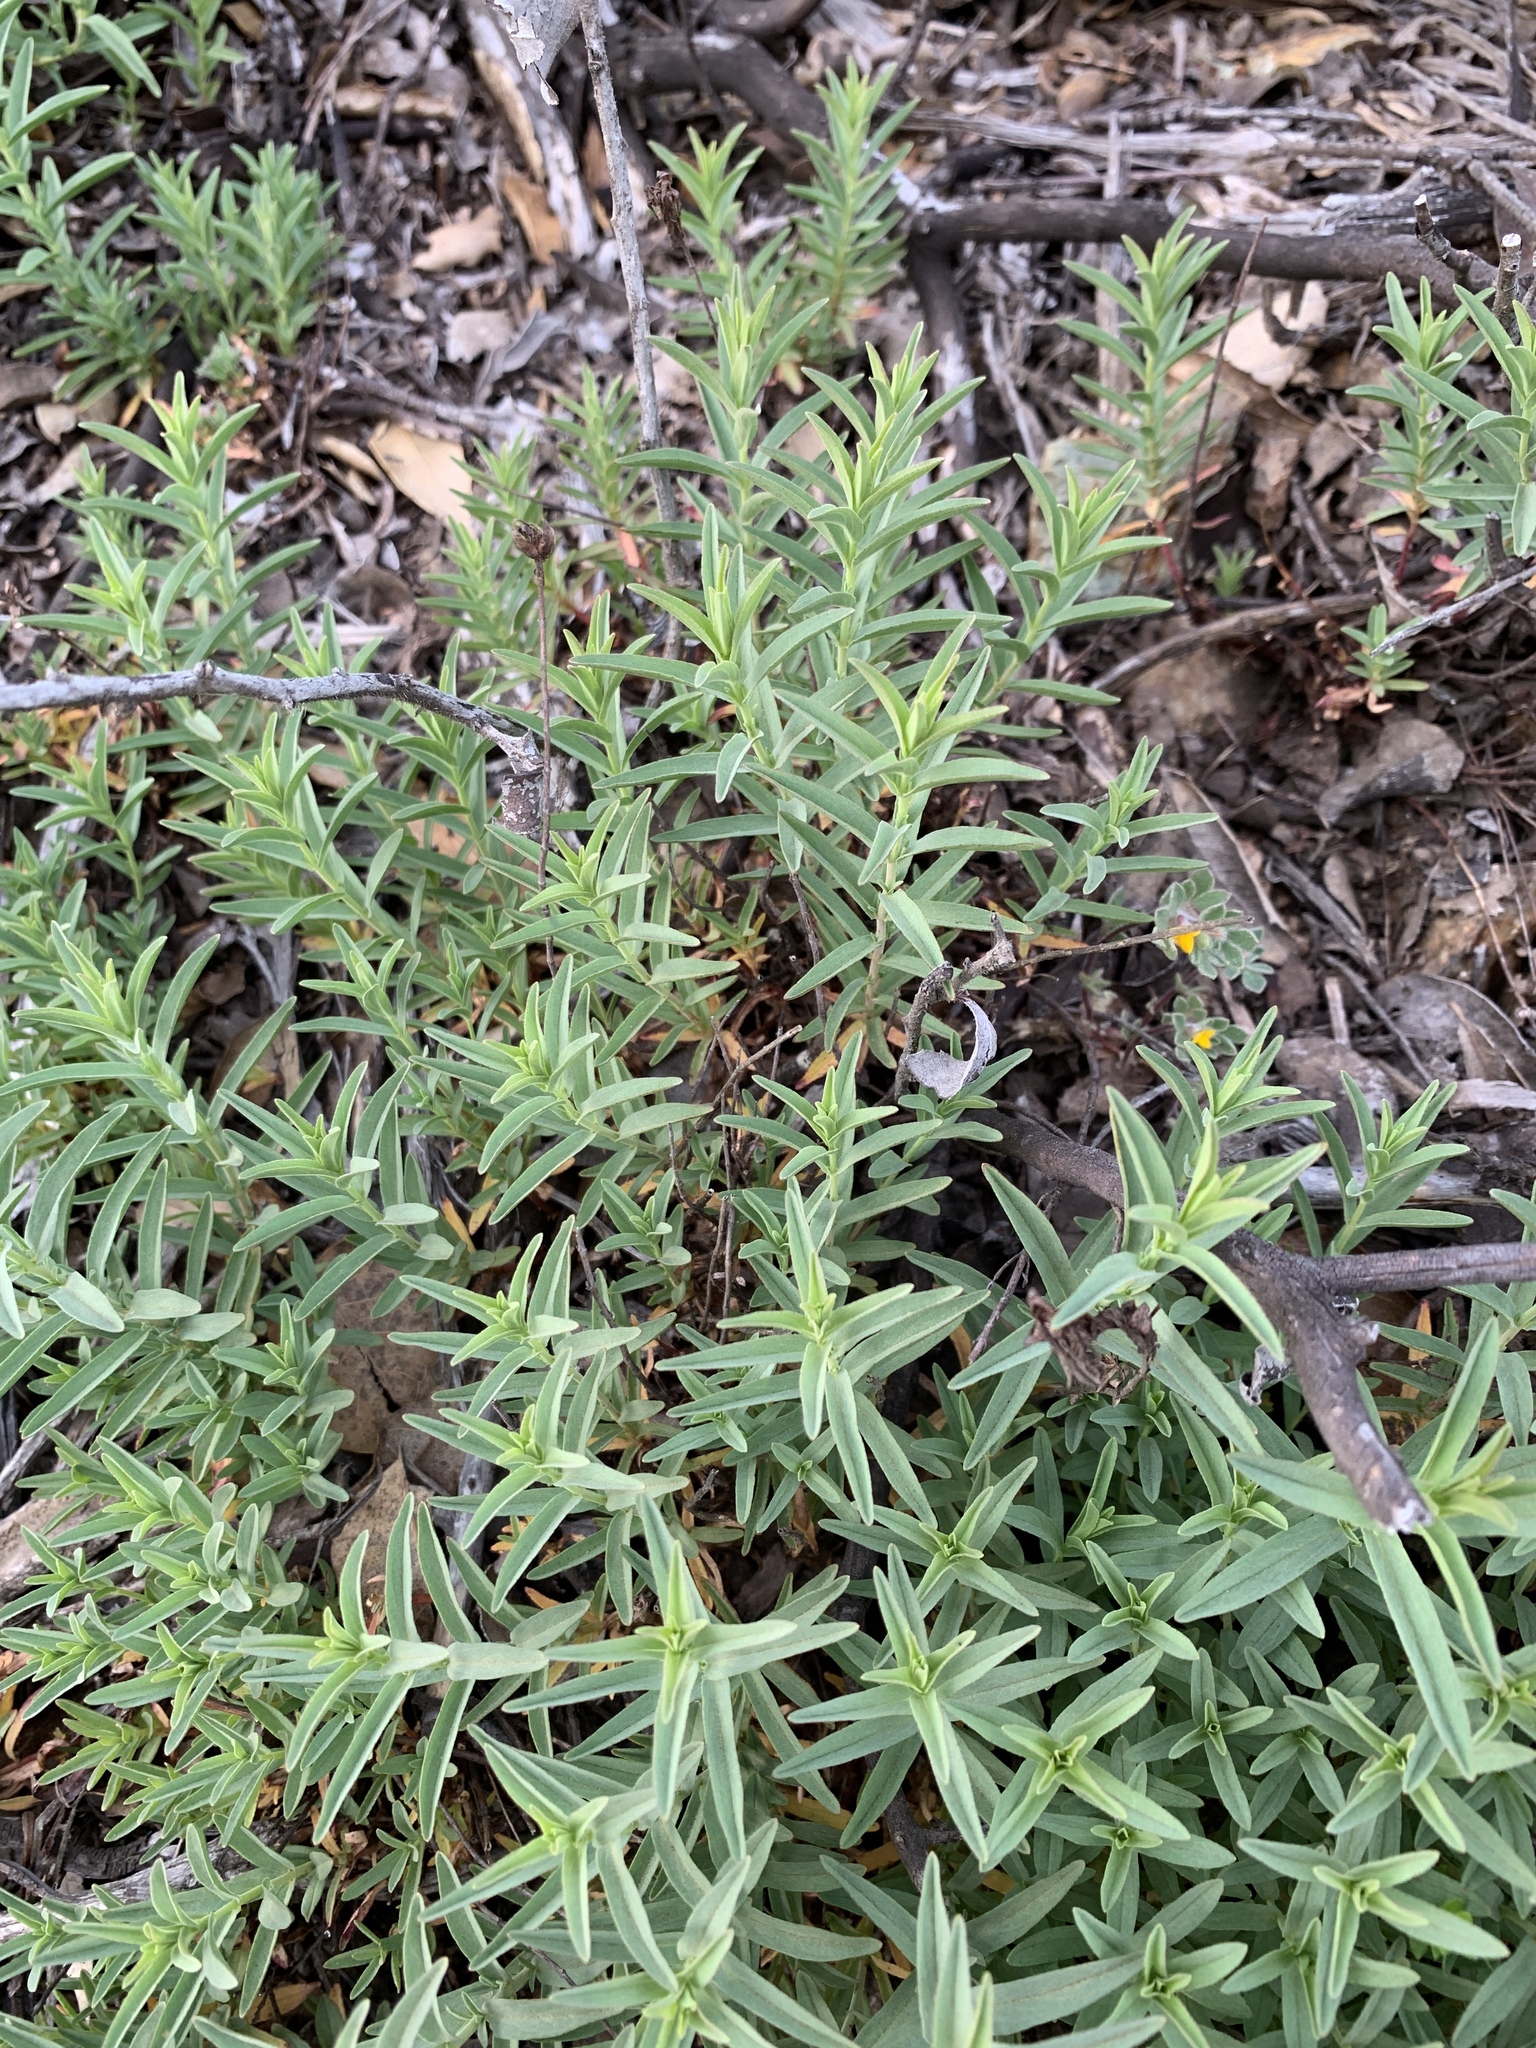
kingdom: Plantae
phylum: Tracheophyta
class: Magnoliopsida
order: Malpighiales
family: Hypericaceae
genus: Hypericum
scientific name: Hypericum concinnum
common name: Gold-wire
